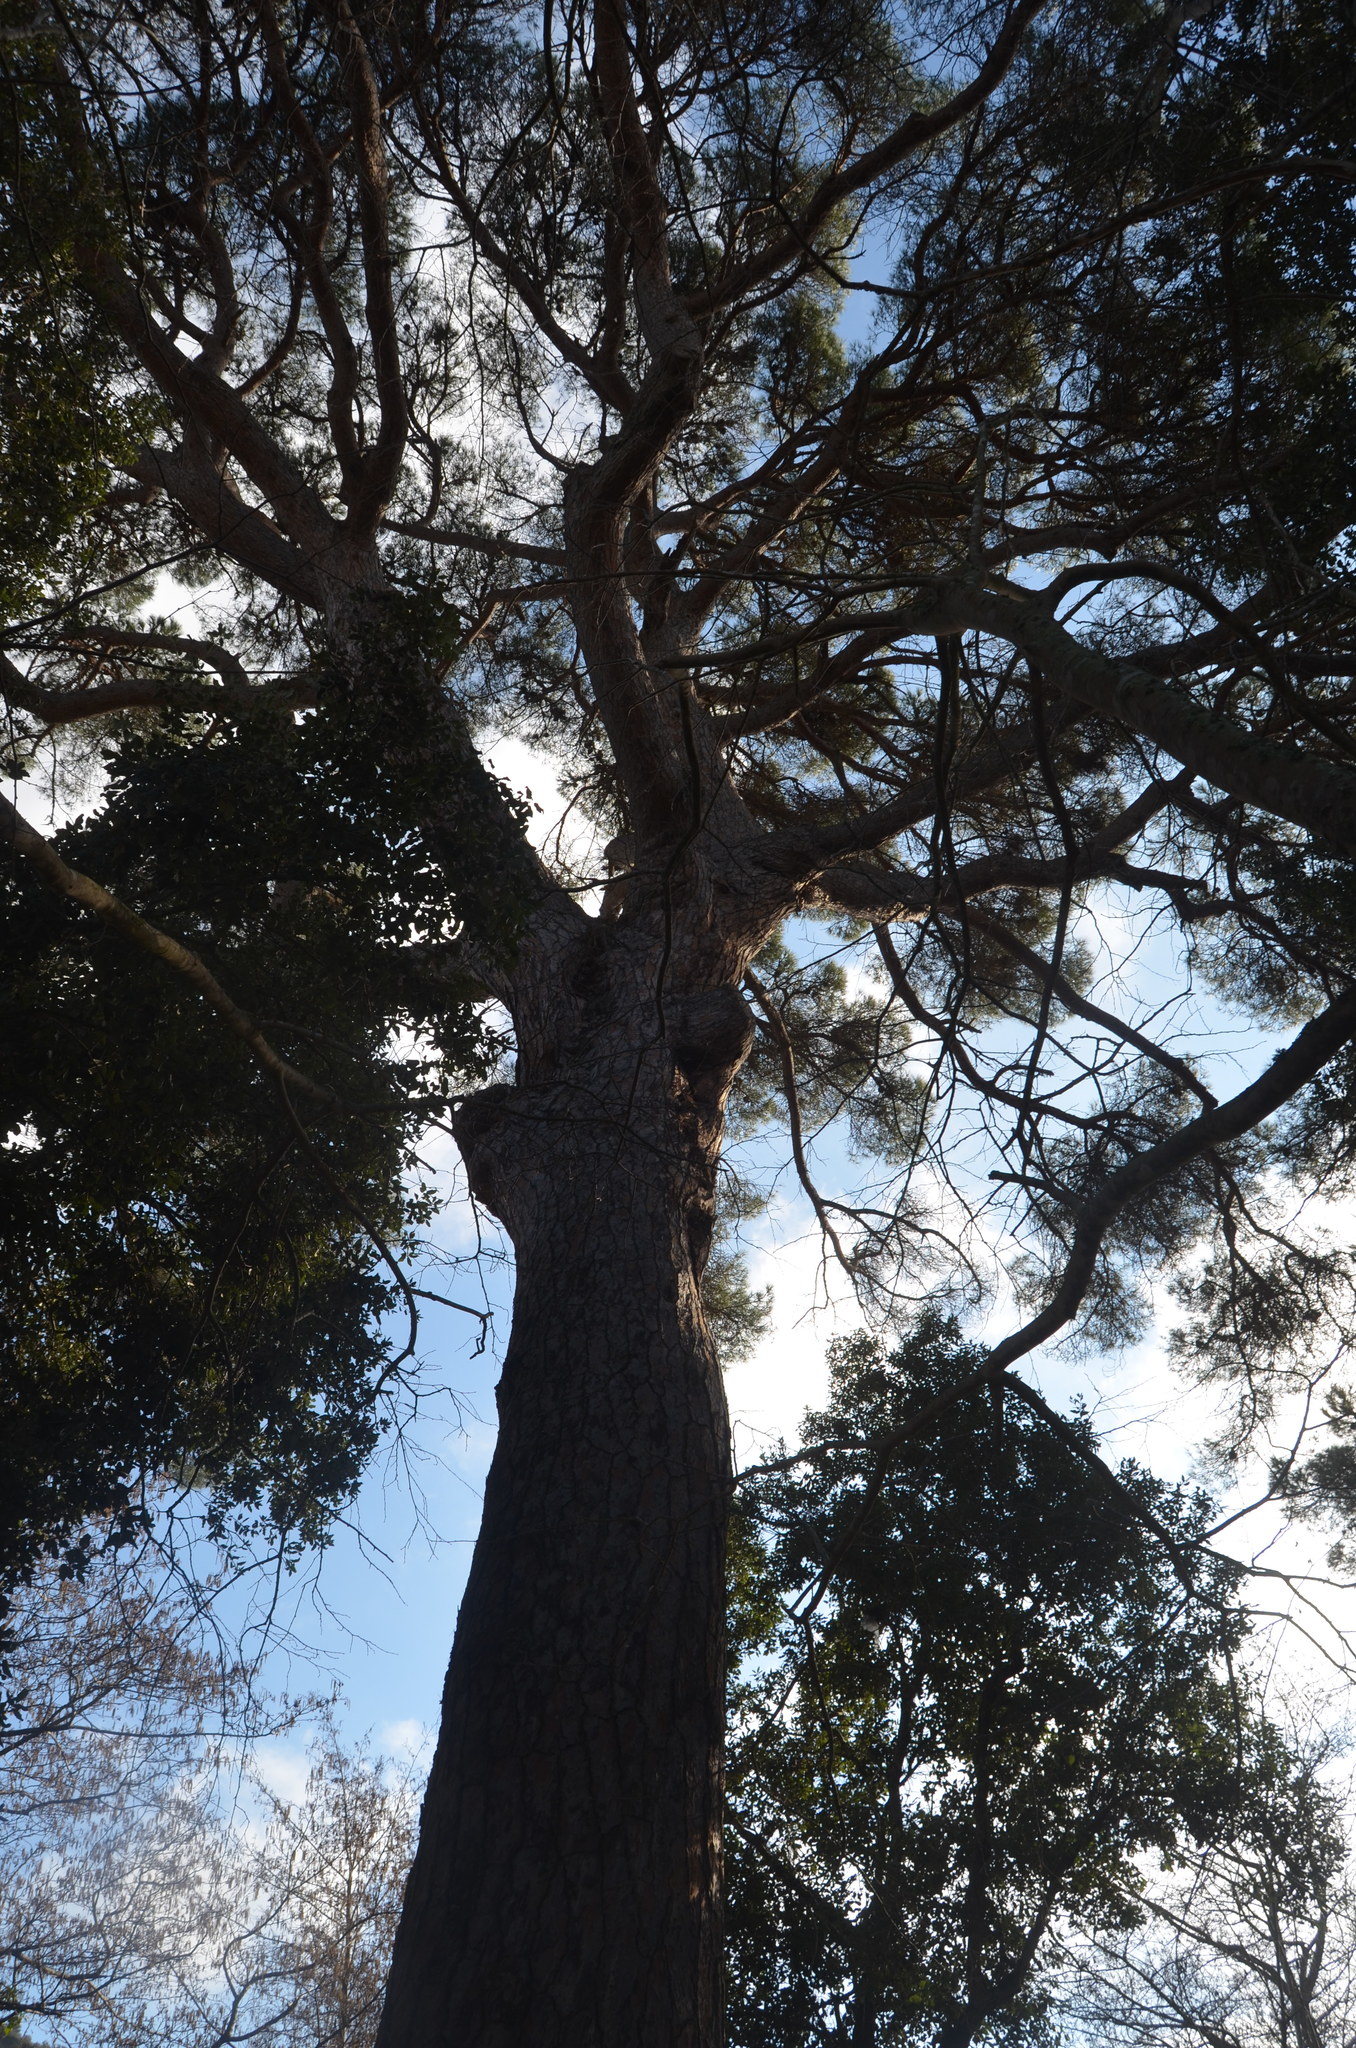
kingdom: Plantae
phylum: Tracheophyta
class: Pinopsida
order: Pinales
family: Pinaceae
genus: Pinus
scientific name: Pinus pinea
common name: Italian stone pine
